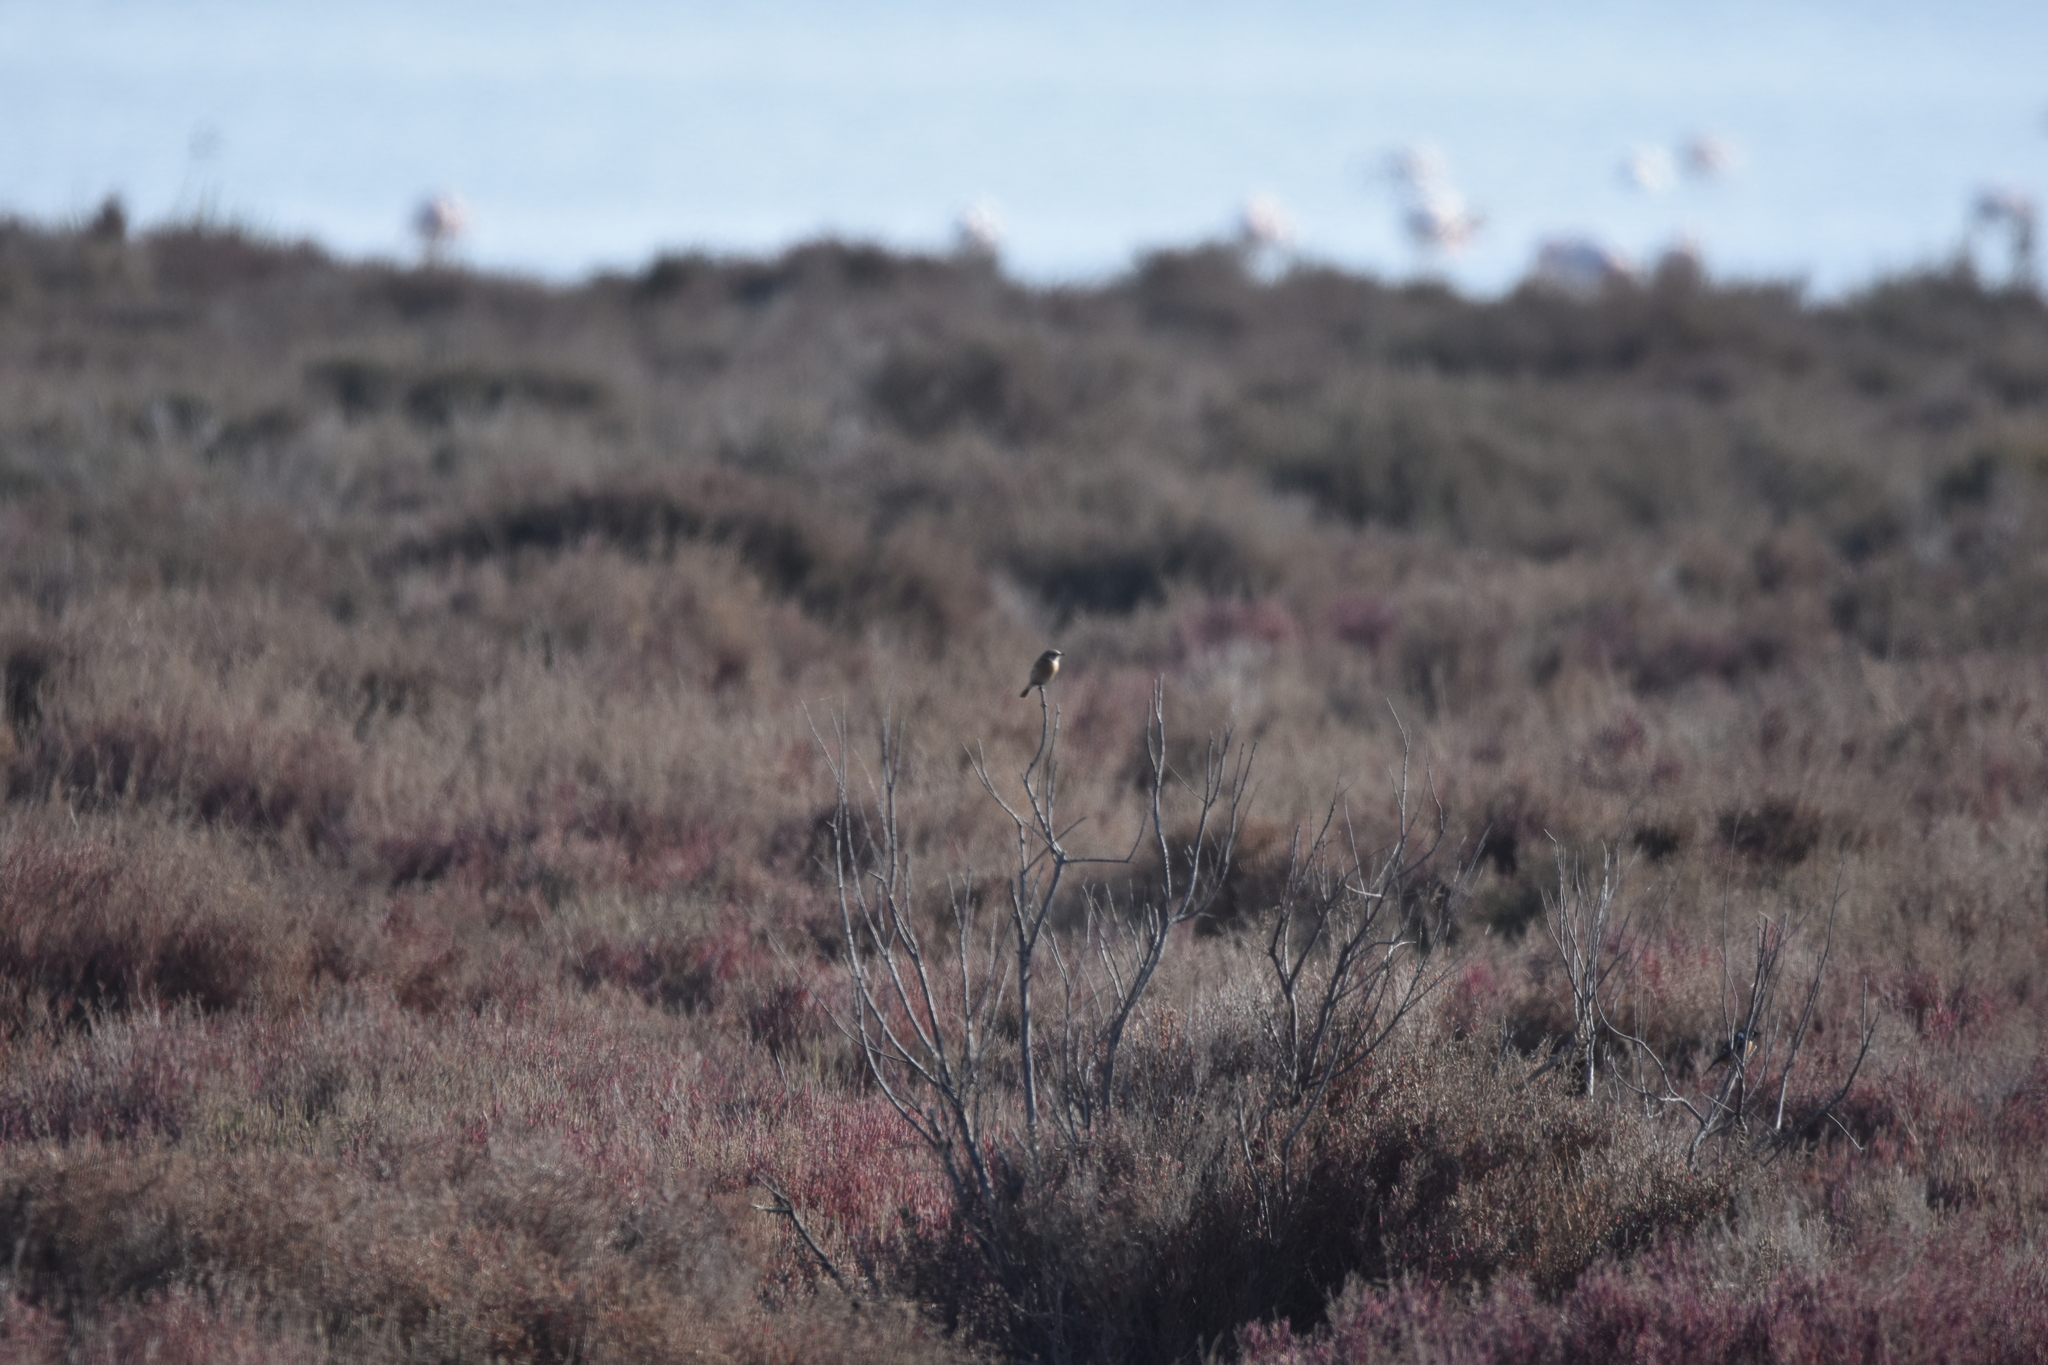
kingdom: Animalia
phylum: Chordata
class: Aves
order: Passeriformes
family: Muscicapidae
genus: Saxicola
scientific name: Saxicola rubicola
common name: European stonechat
